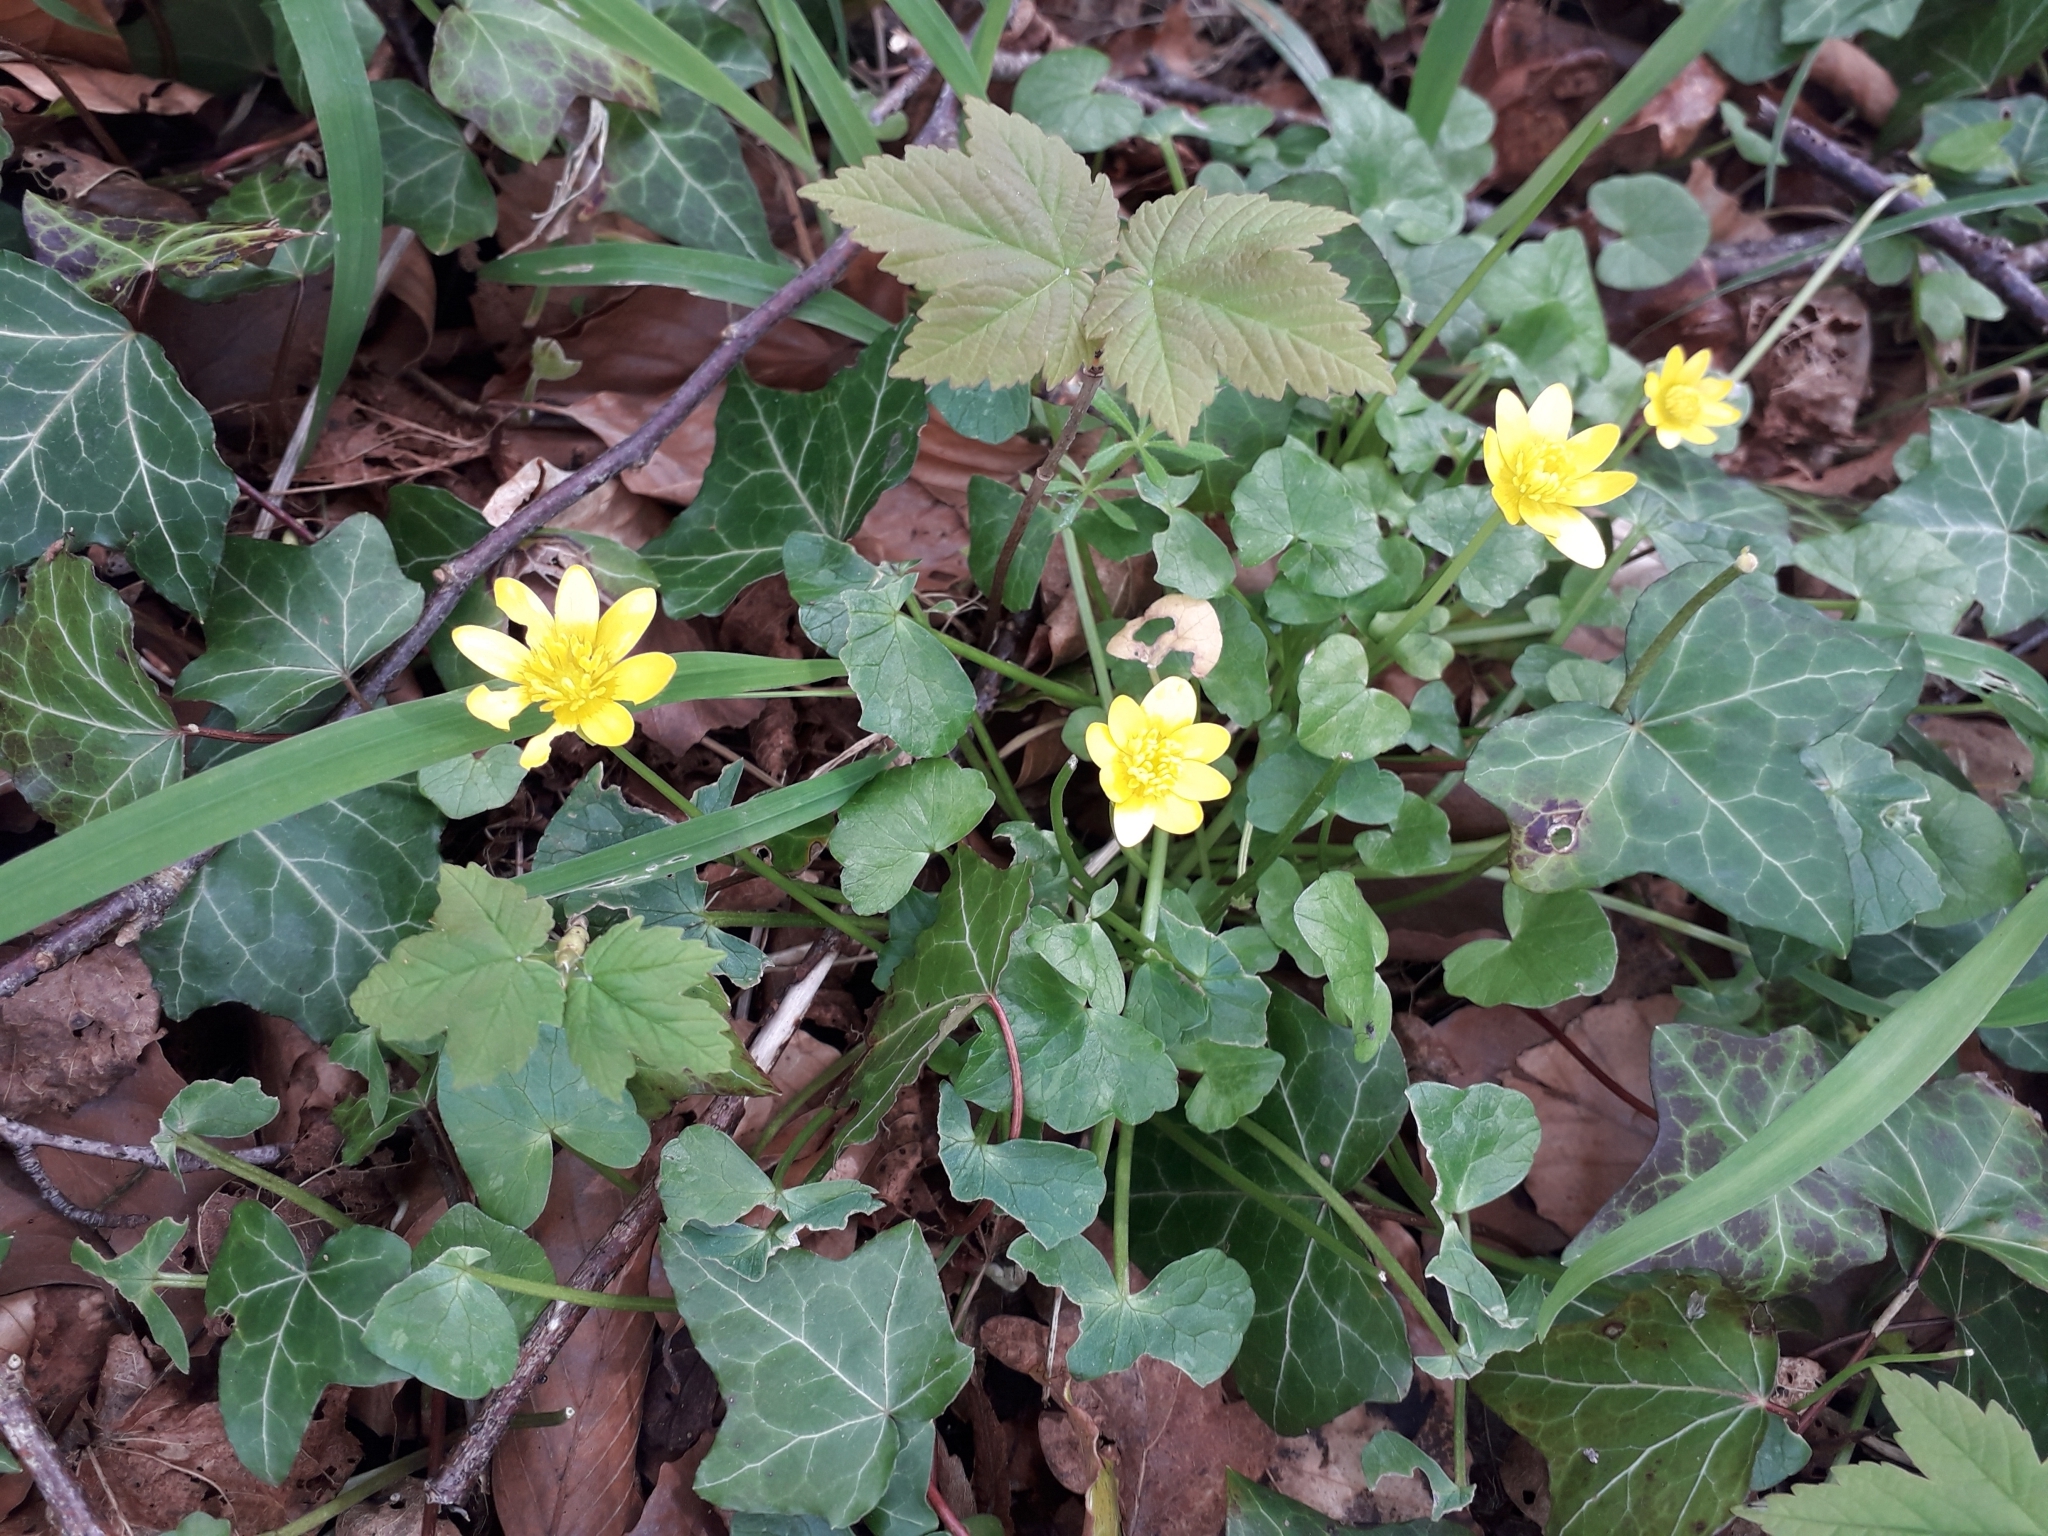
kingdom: Plantae
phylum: Tracheophyta
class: Magnoliopsida
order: Ranunculales
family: Ranunculaceae
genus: Ficaria
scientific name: Ficaria verna
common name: Lesser celandine
